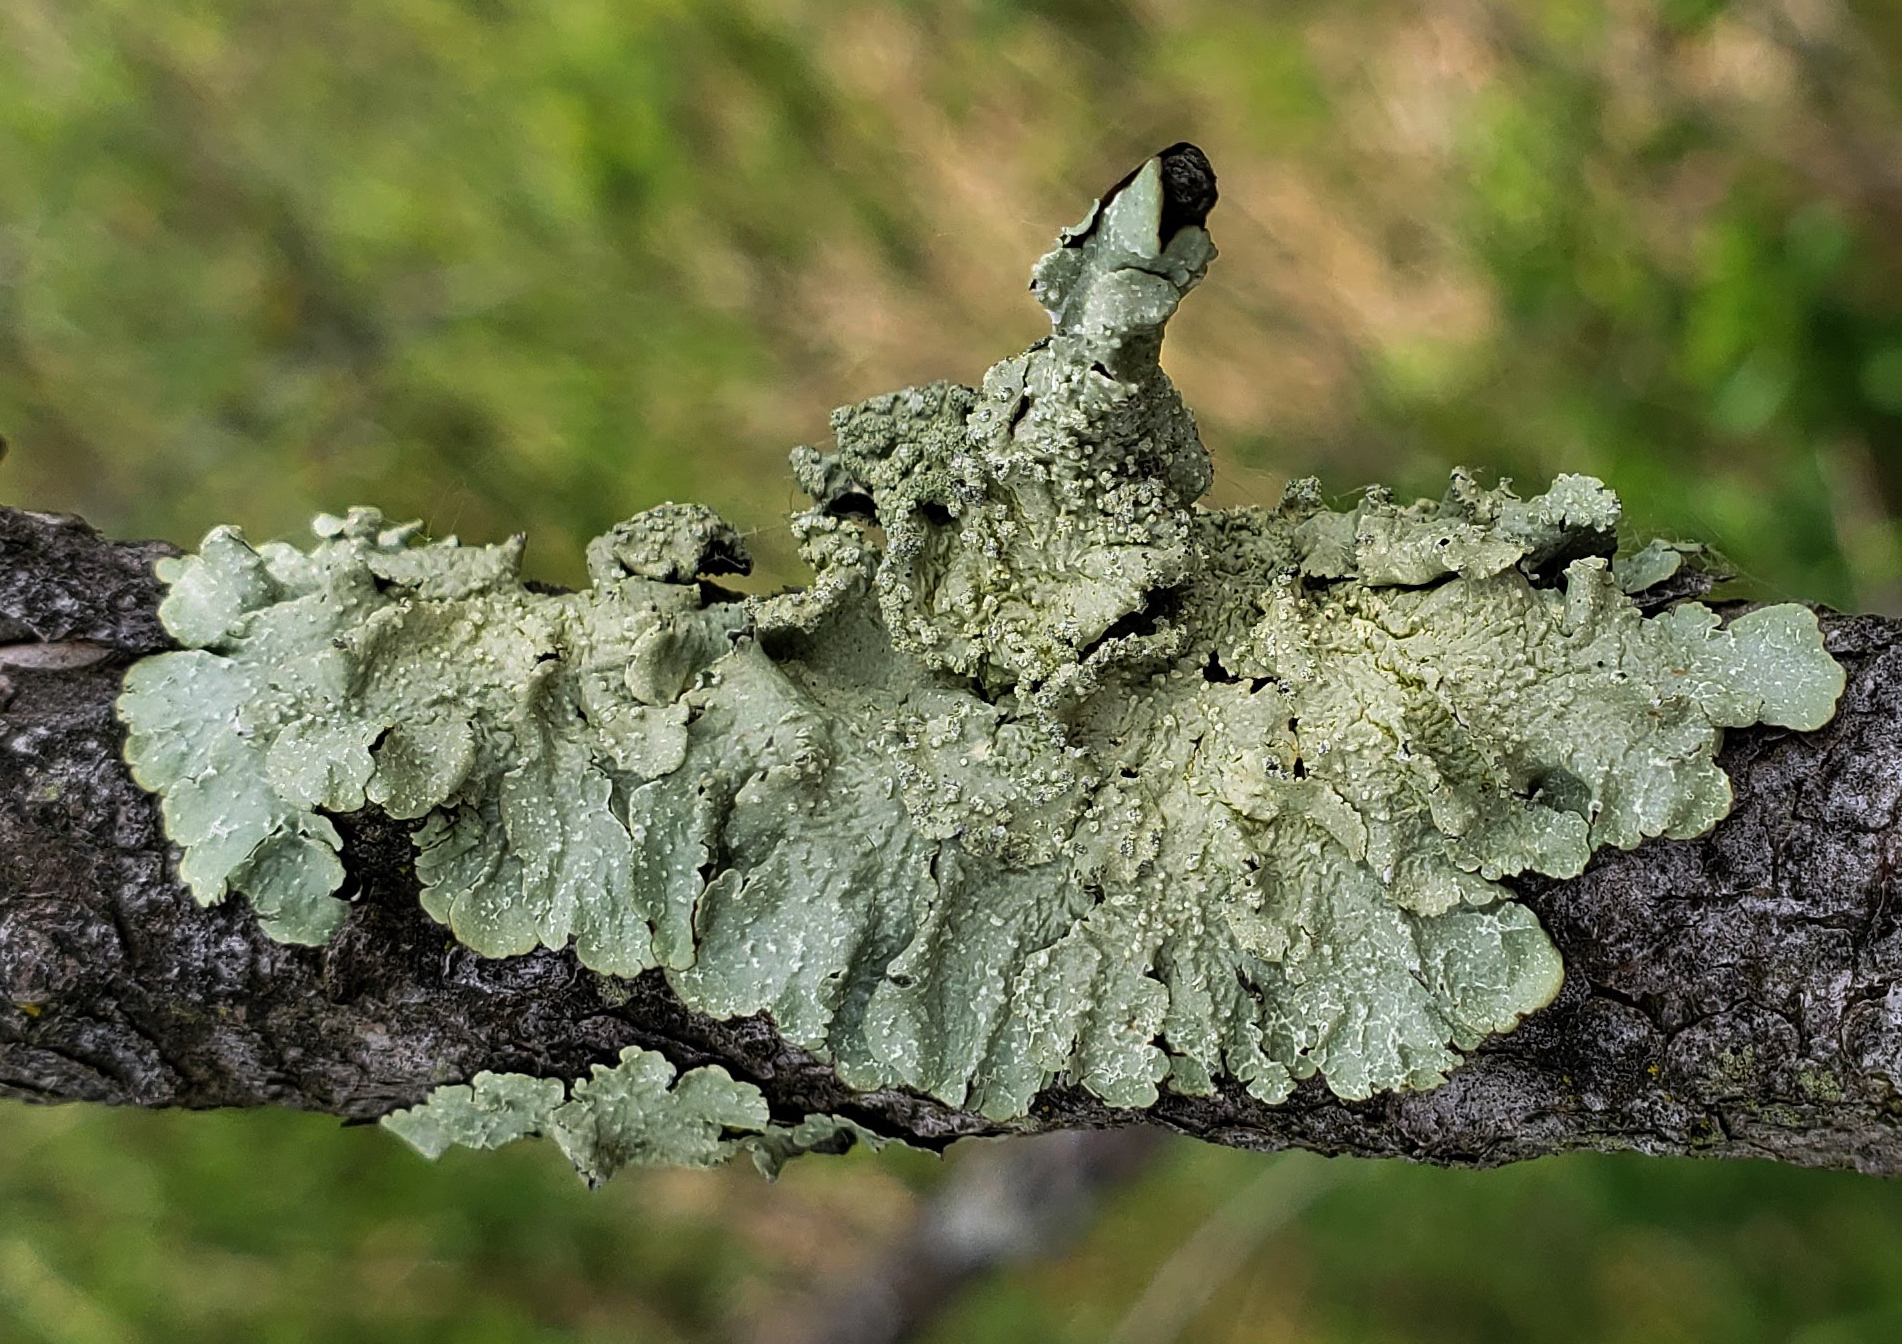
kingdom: Fungi
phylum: Ascomycota
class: Lecanoromycetes
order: Lecanorales
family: Parmeliaceae
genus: Flavopunctelia
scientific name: Flavopunctelia flaventior
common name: Speckled greenshield
